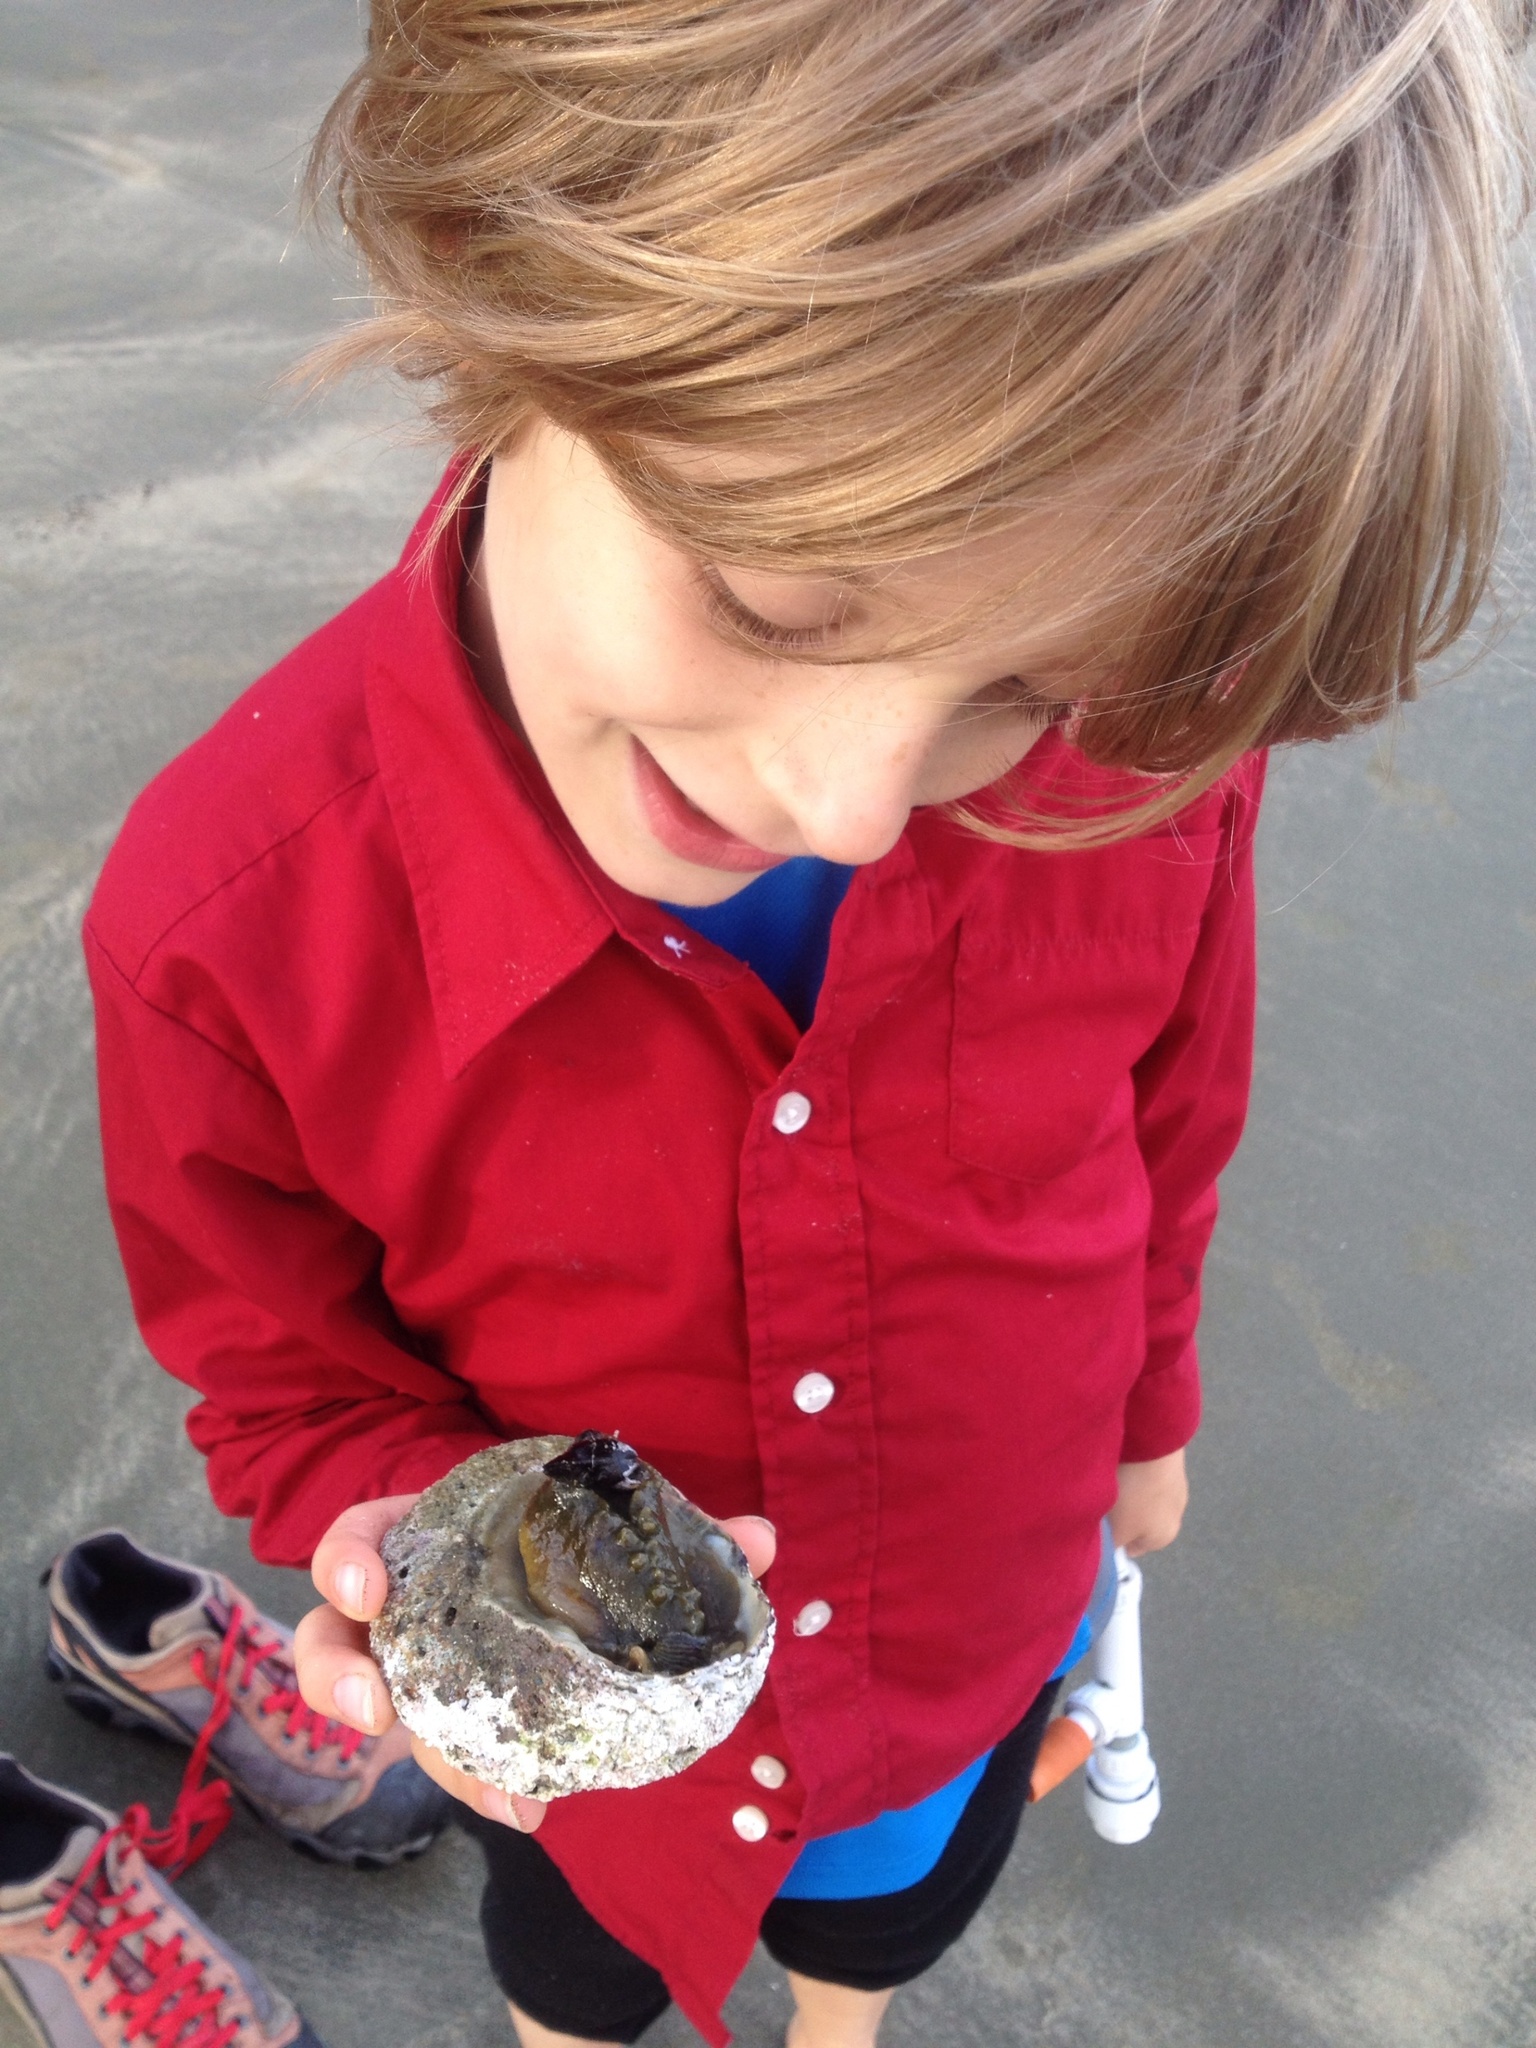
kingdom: Animalia
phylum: Mollusca
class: Gastropoda
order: Trochida
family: Turbinidae
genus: Cookia
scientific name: Cookia sulcata
